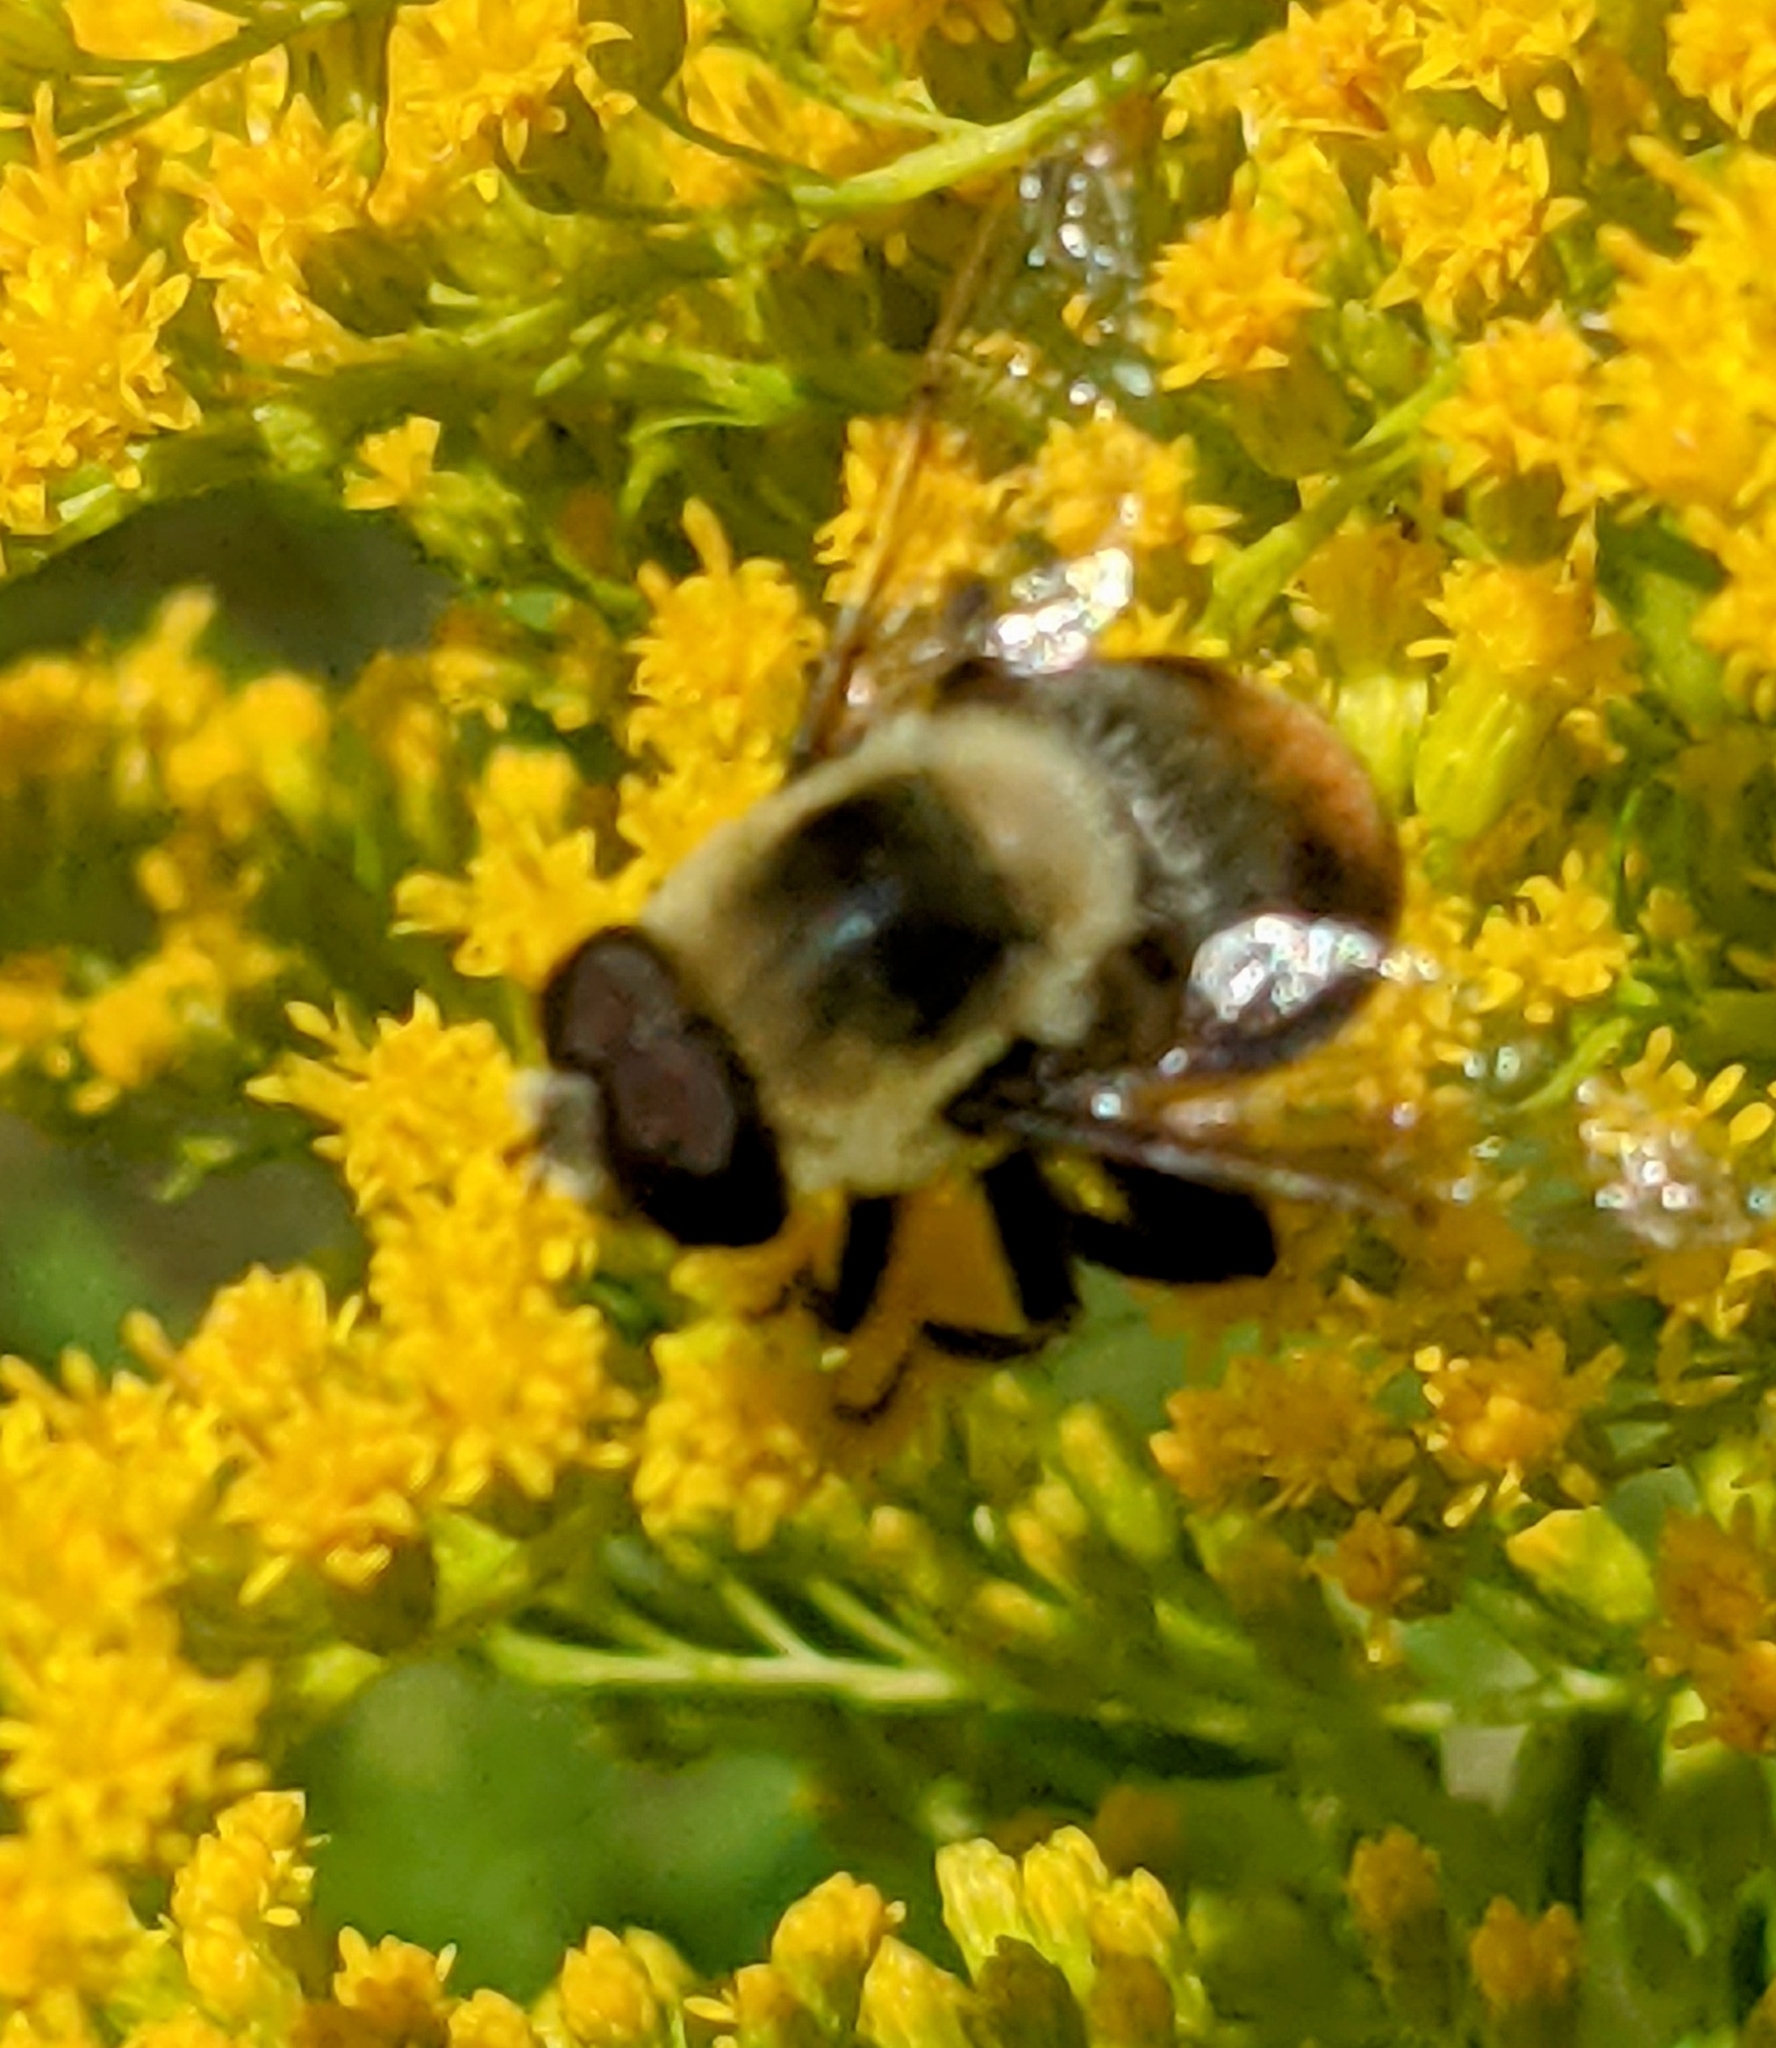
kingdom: Animalia
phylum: Arthropoda
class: Insecta
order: Diptera
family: Syrphidae
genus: Eristalis
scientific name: Eristalis flavipes
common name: Orange-legged drone fly
